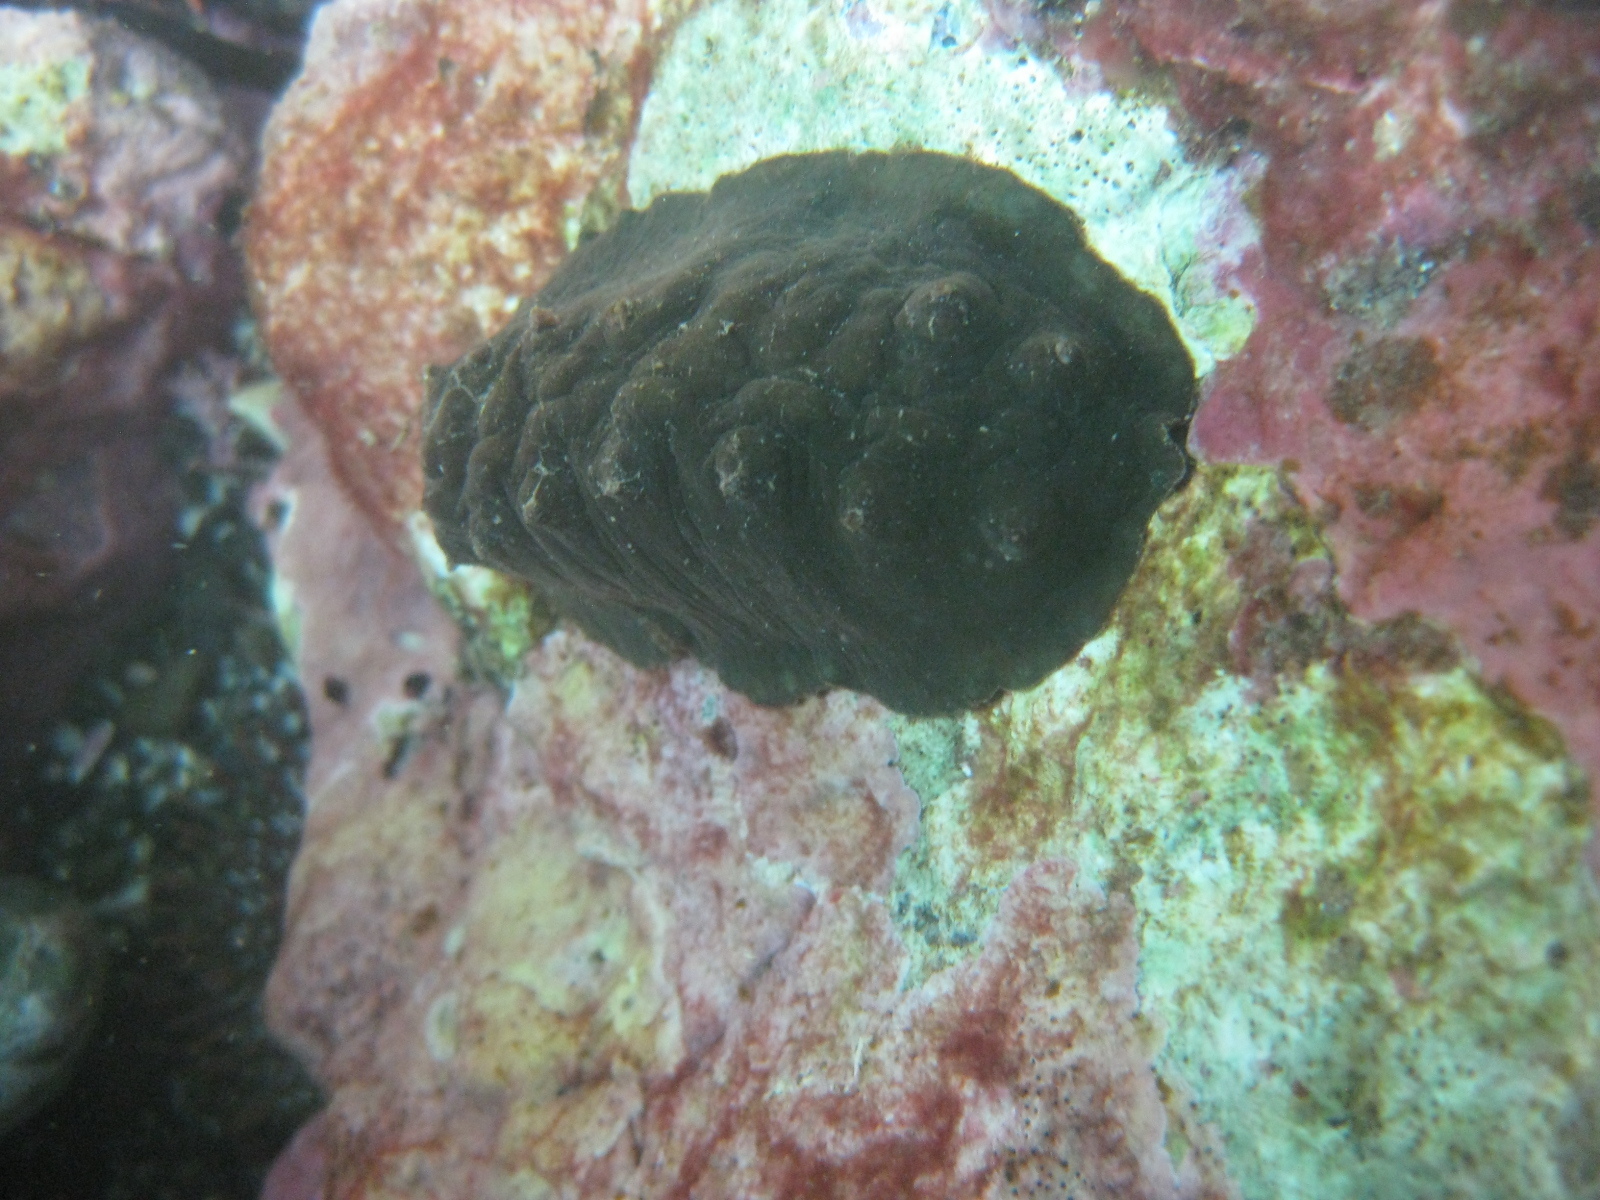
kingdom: Animalia
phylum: Mollusca
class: Polyplacophora
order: Chitonida
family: Acanthochitonidae
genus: Cryptoconchus
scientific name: Cryptoconchus porosus
